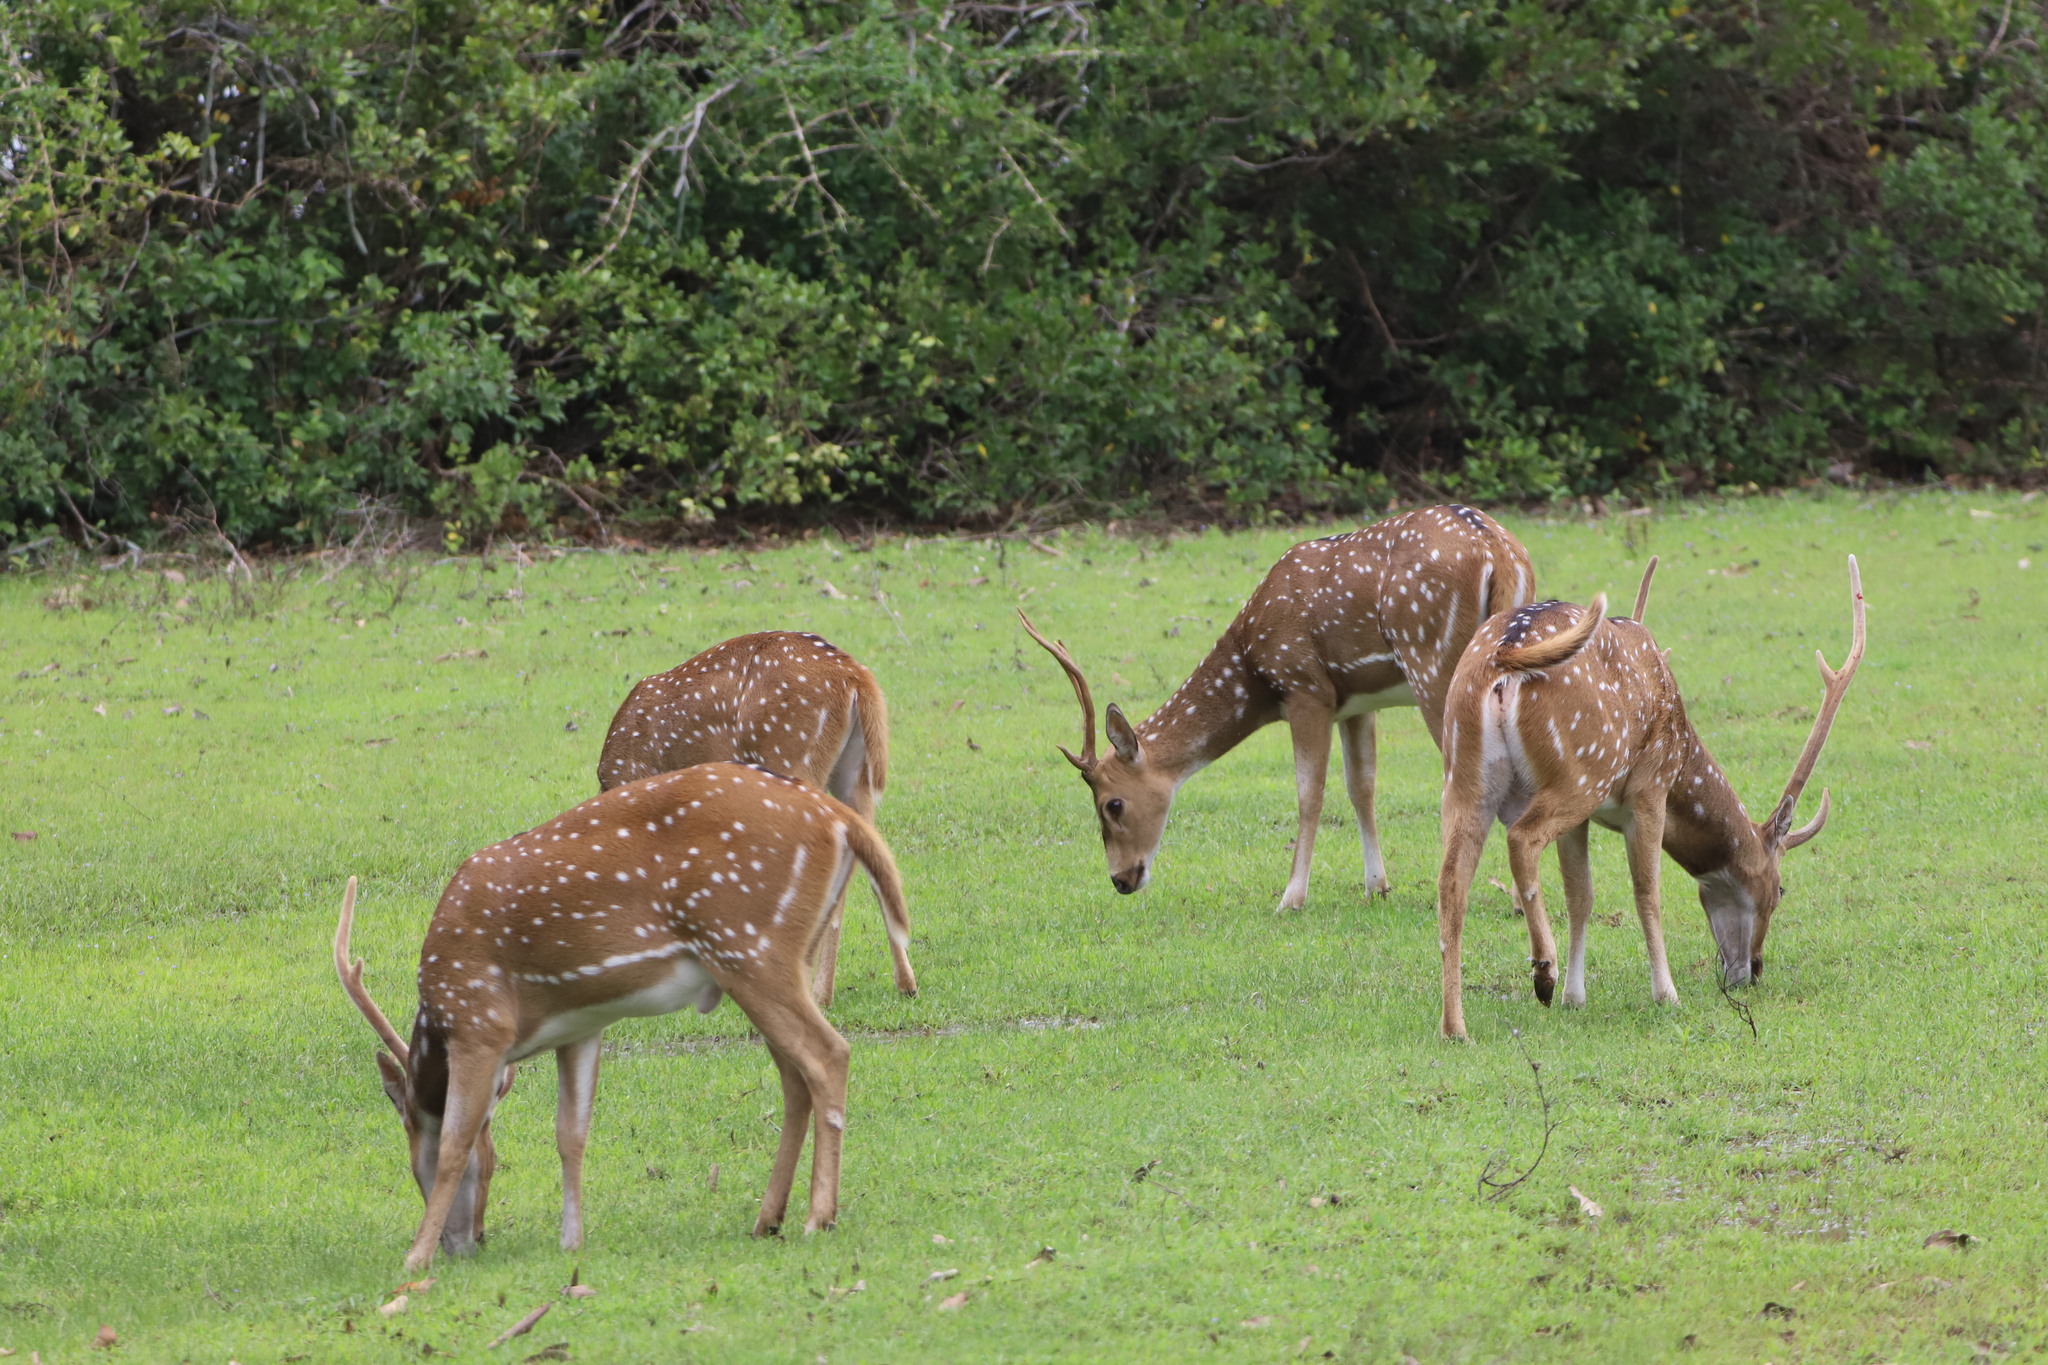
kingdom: Animalia
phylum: Chordata
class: Mammalia
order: Artiodactyla
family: Cervidae
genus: Axis
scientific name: Axis axis
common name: Chital
